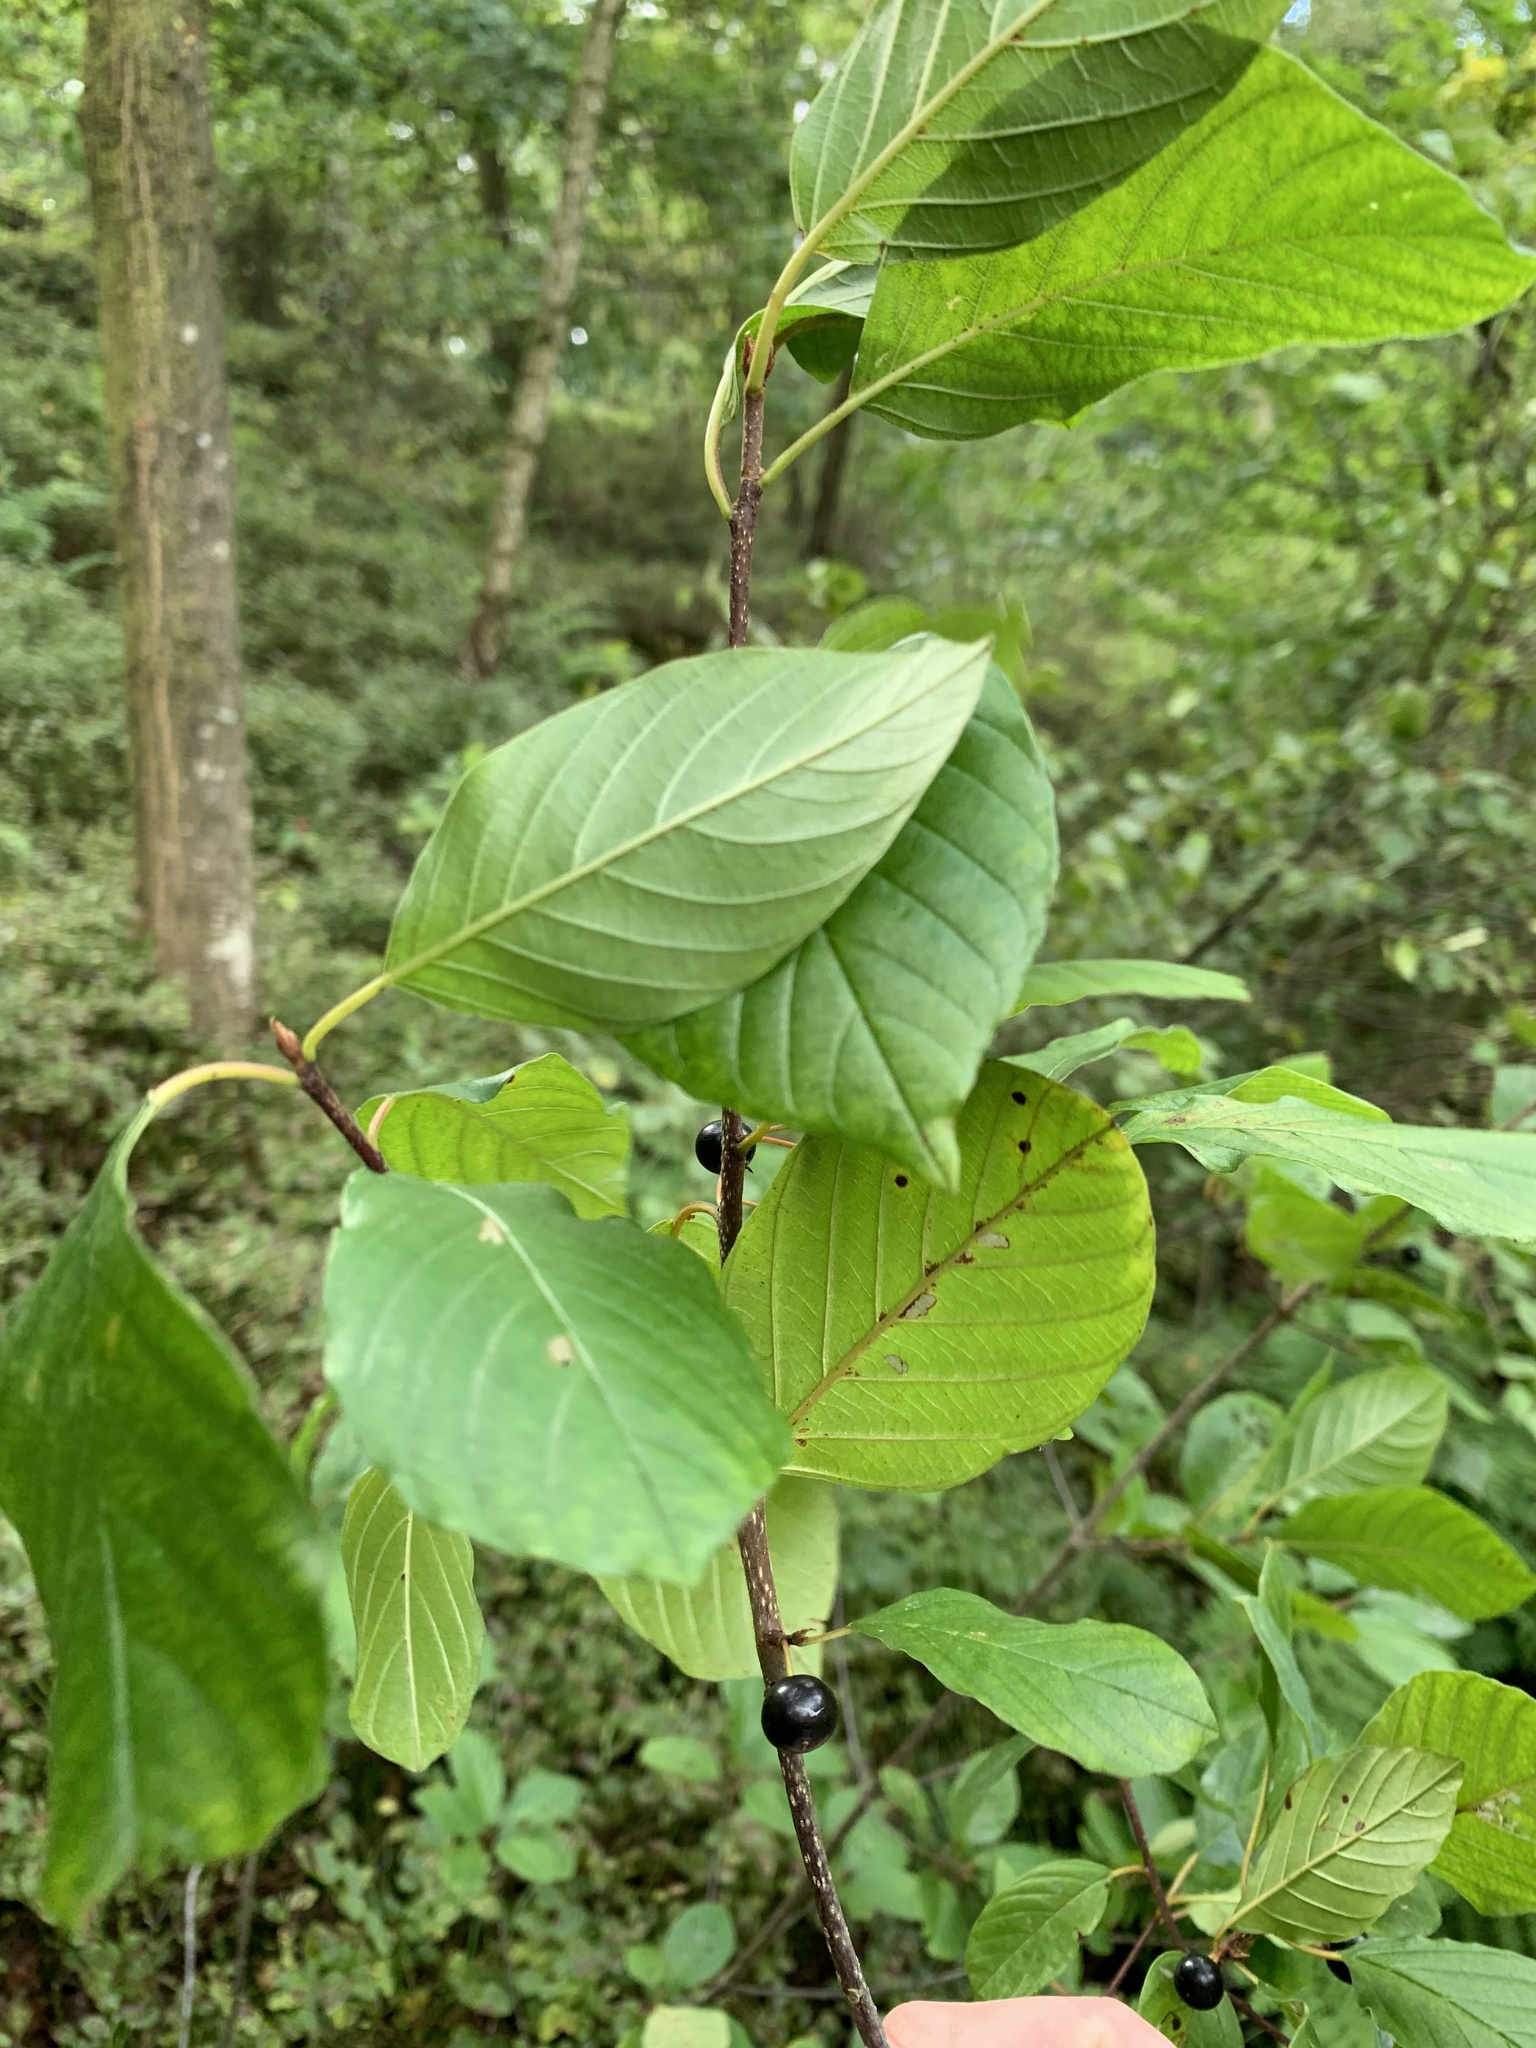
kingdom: Plantae
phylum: Tracheophyta
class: Magnoliopsida
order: Rosales
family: Rhamnaceae
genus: Frangula
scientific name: Frangula alnus
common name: Alder buckthorn
